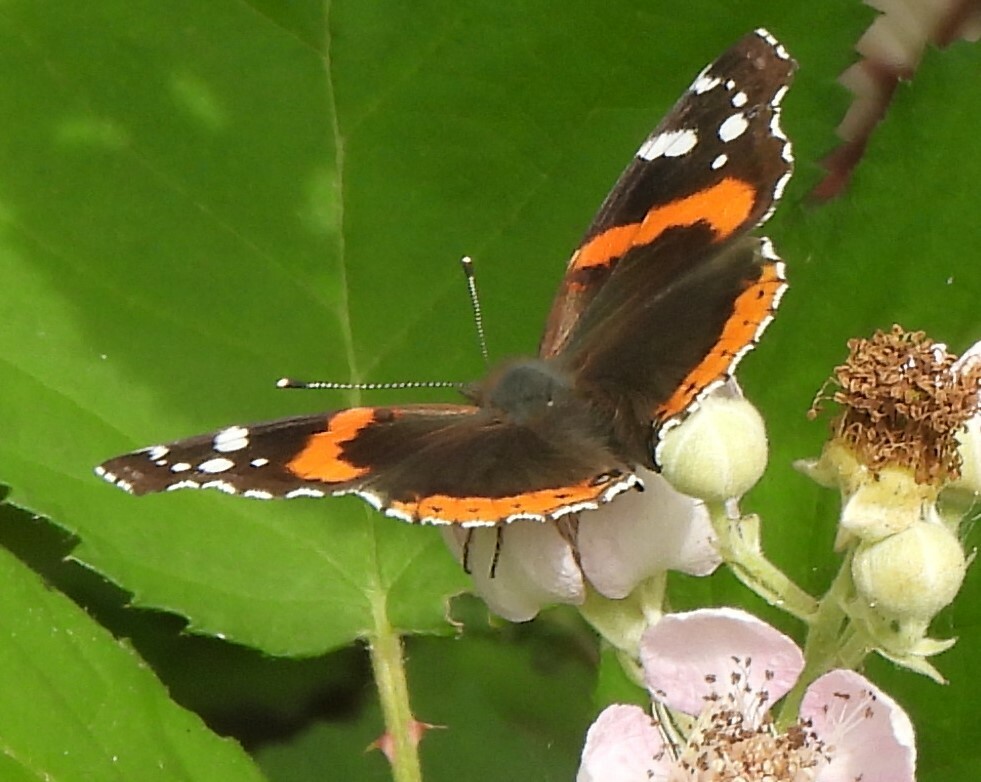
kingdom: Animalia
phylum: Arthropoda
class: Insecta
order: Lepidoptera
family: Nymphalidae
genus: Vanessa
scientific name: Vanessa atalanta
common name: Red admiral
